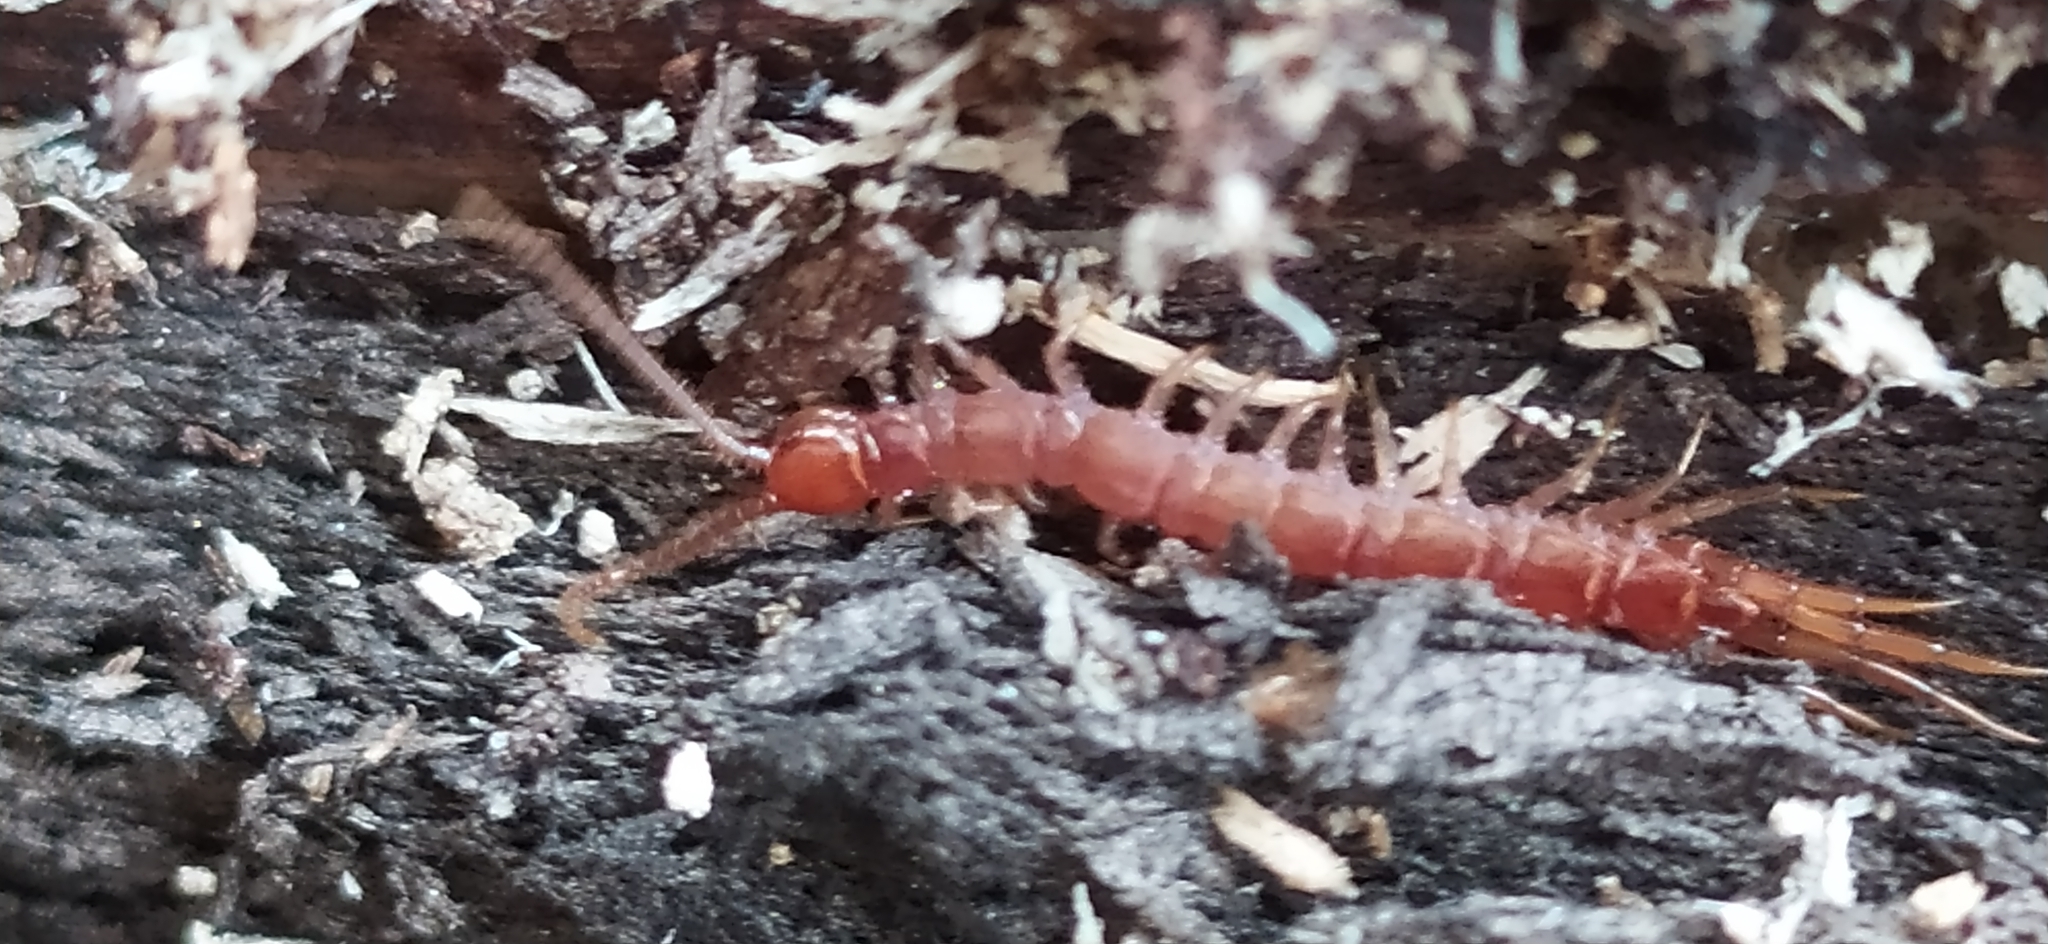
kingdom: Animalia
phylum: Arthropoda
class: Chilopoda
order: Lithobiomorpha
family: Lithobiidae
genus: Lithobius
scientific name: Lithobius forficatus
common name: Centipede
